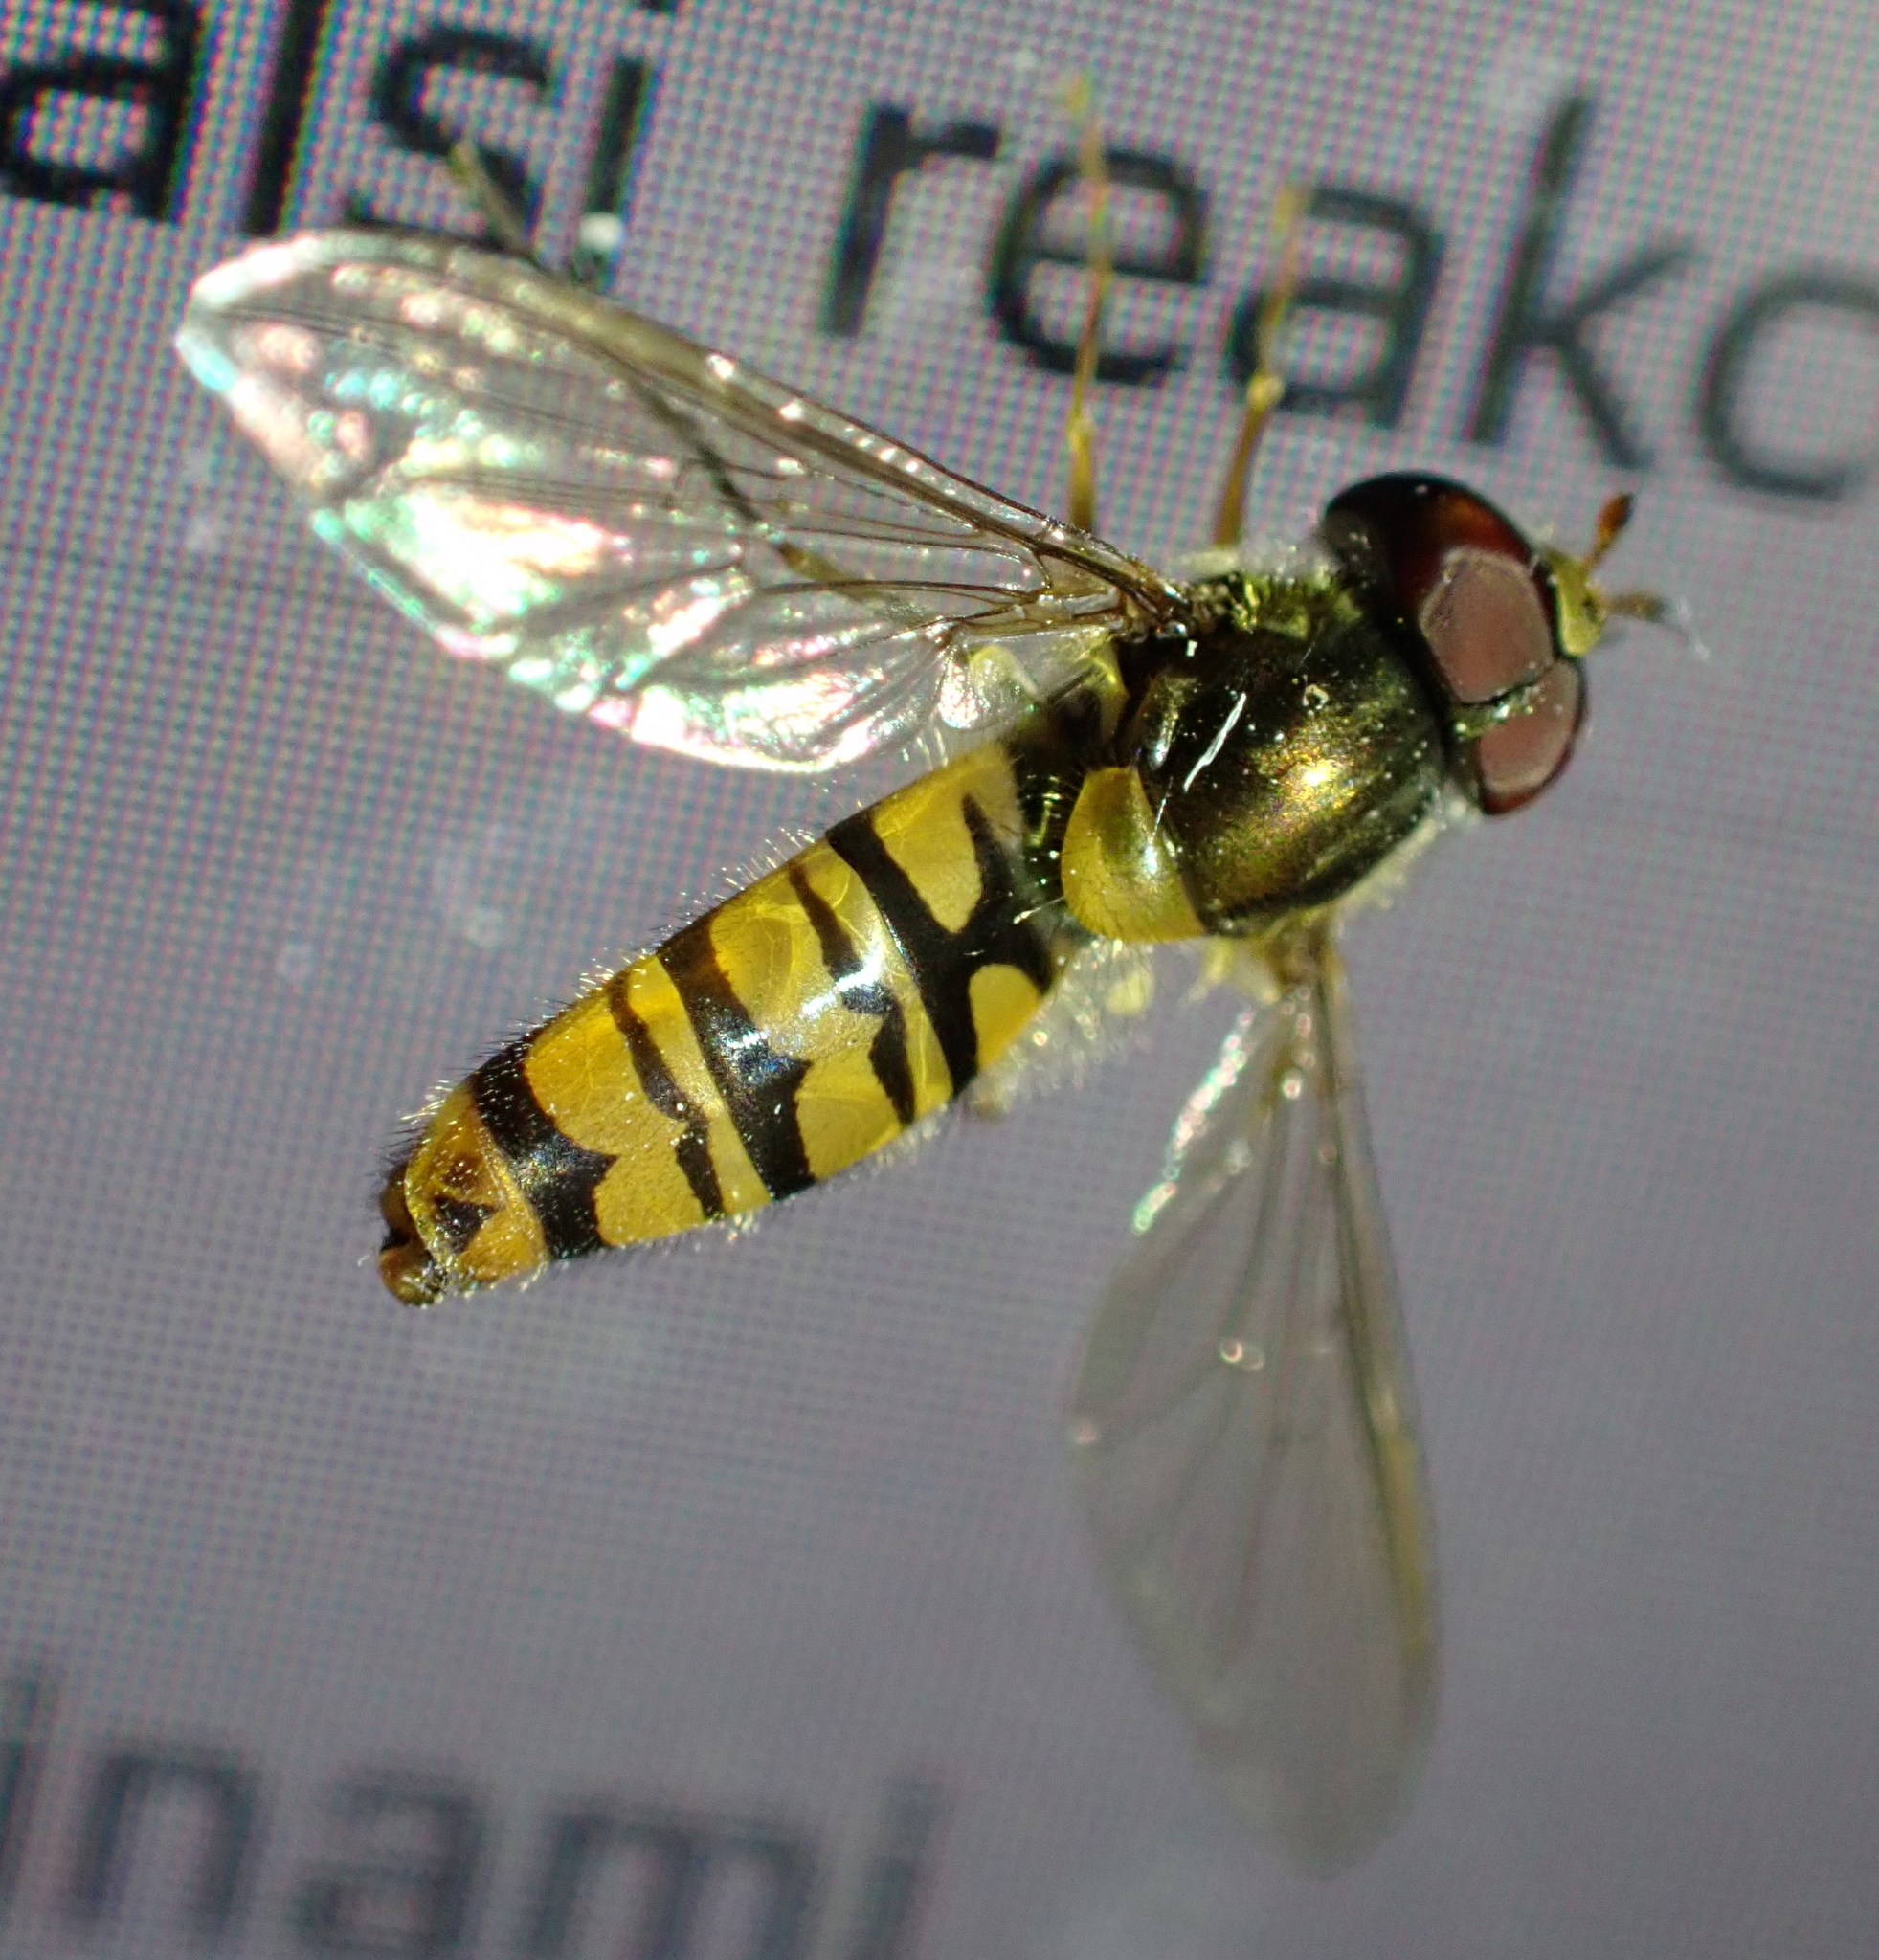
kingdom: Animalia
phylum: Arthropoda
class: Insecta
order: Diptera
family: Syrphidae
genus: Episyrphus
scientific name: Episyrphus balteatus
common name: Marmalade hoverfly
